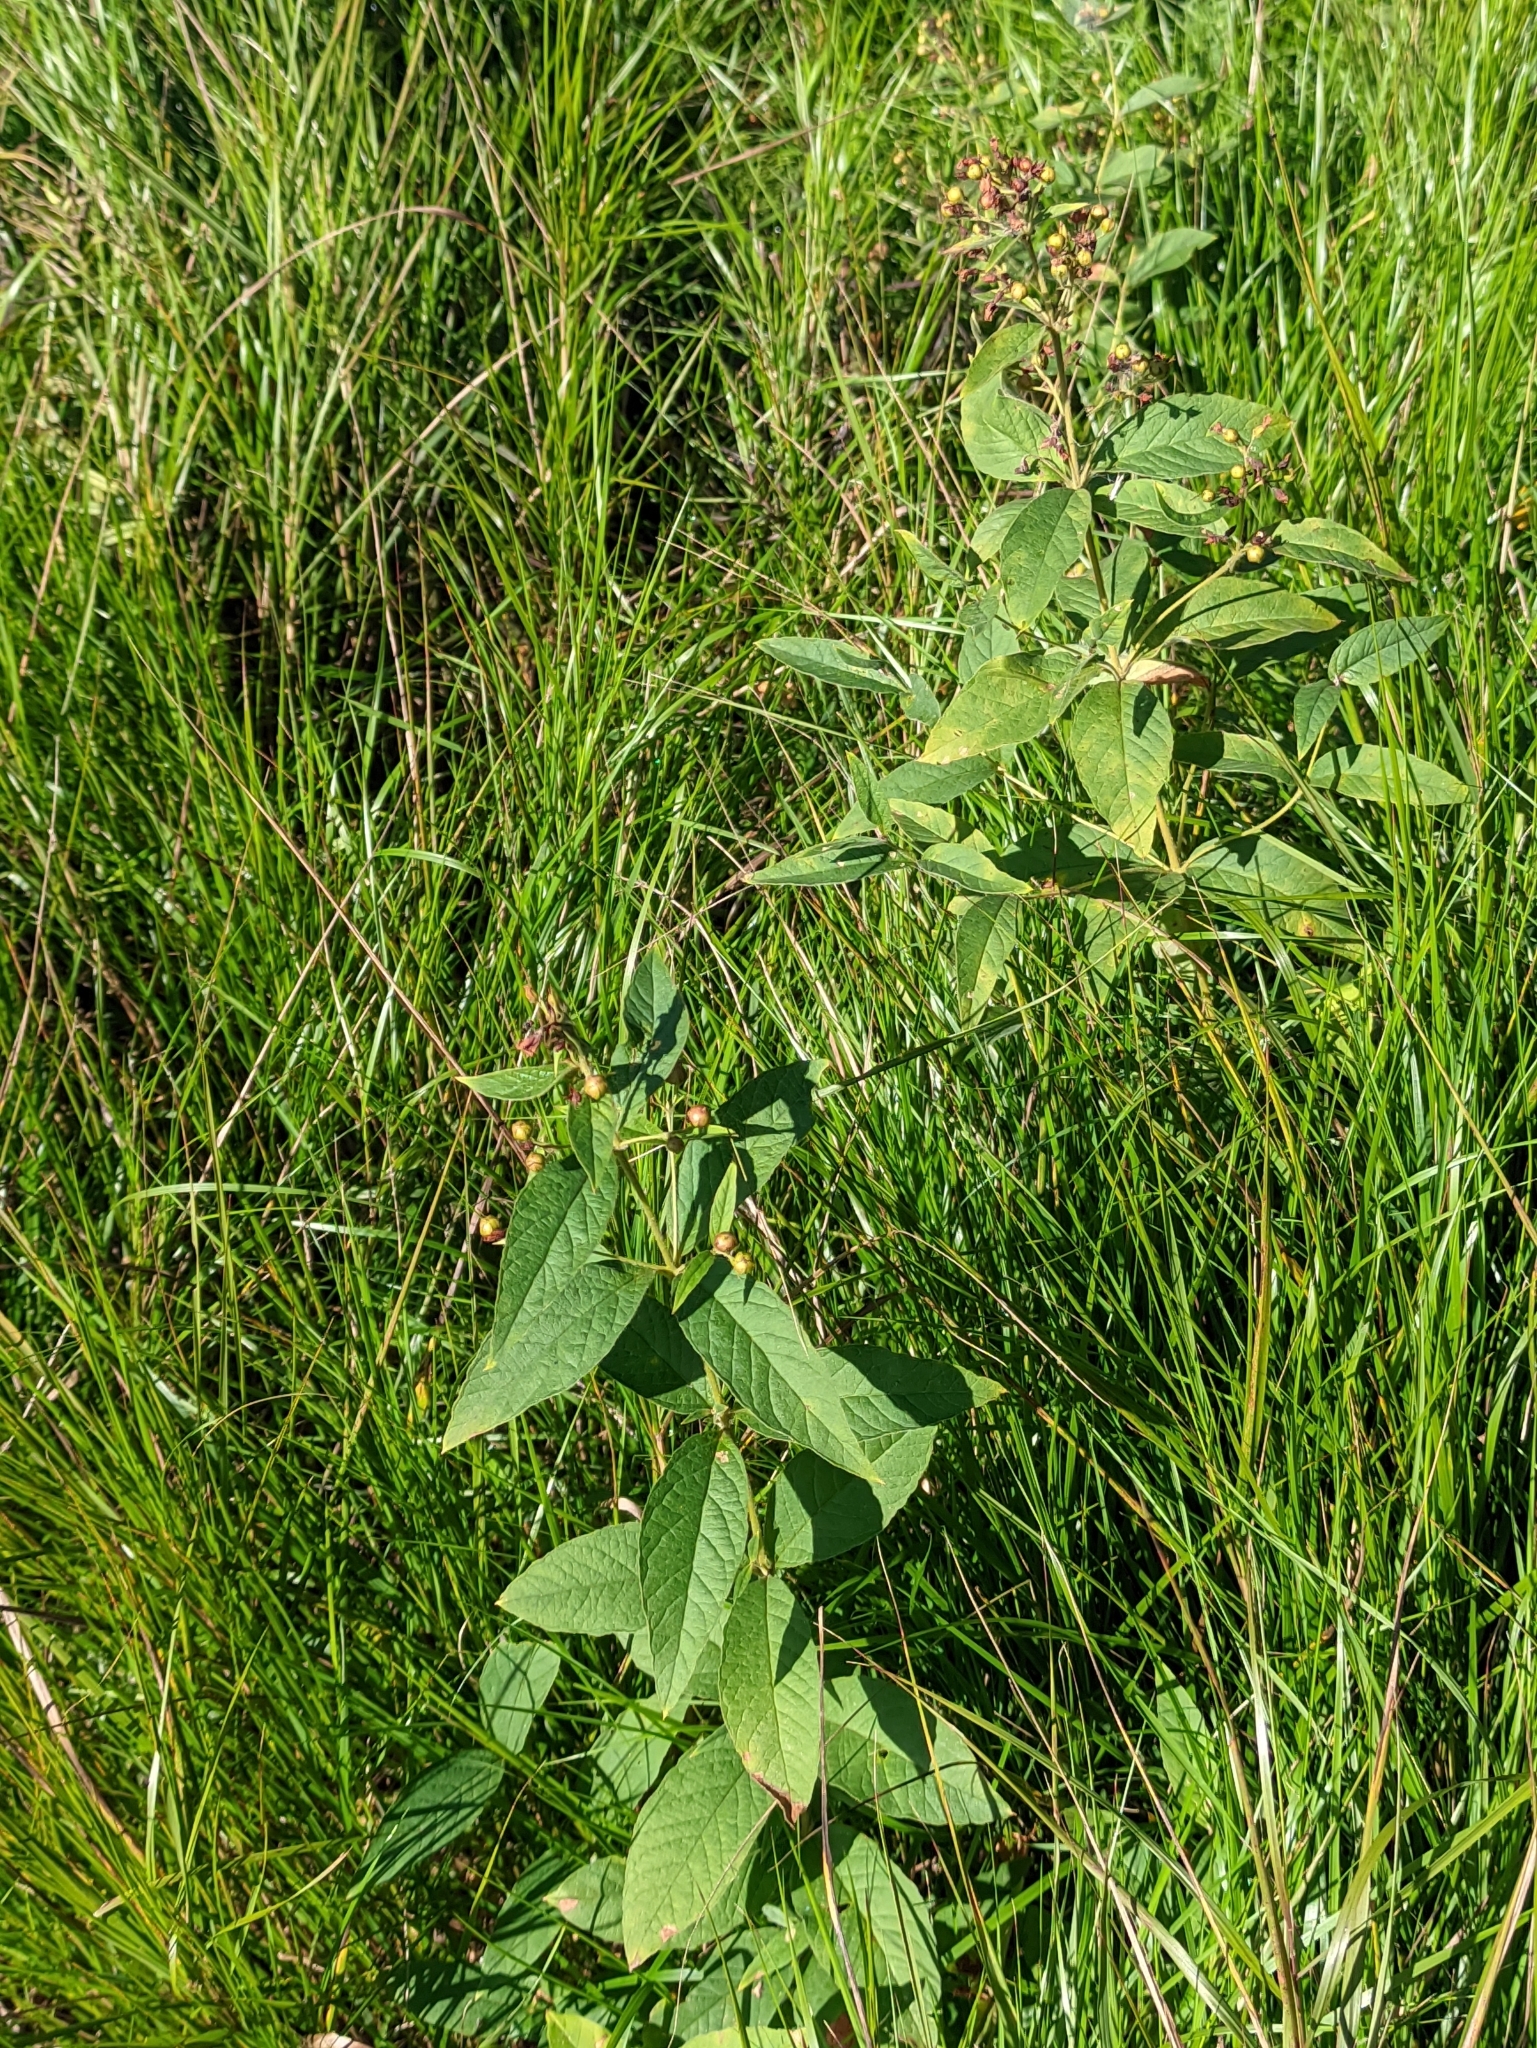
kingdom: Plantae
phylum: Tracheophyta
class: Magnoliopsida
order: Ericales
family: Primulaceae
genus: Lysimachia
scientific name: Lysimachia vulgaris
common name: Yellow loosestrife
